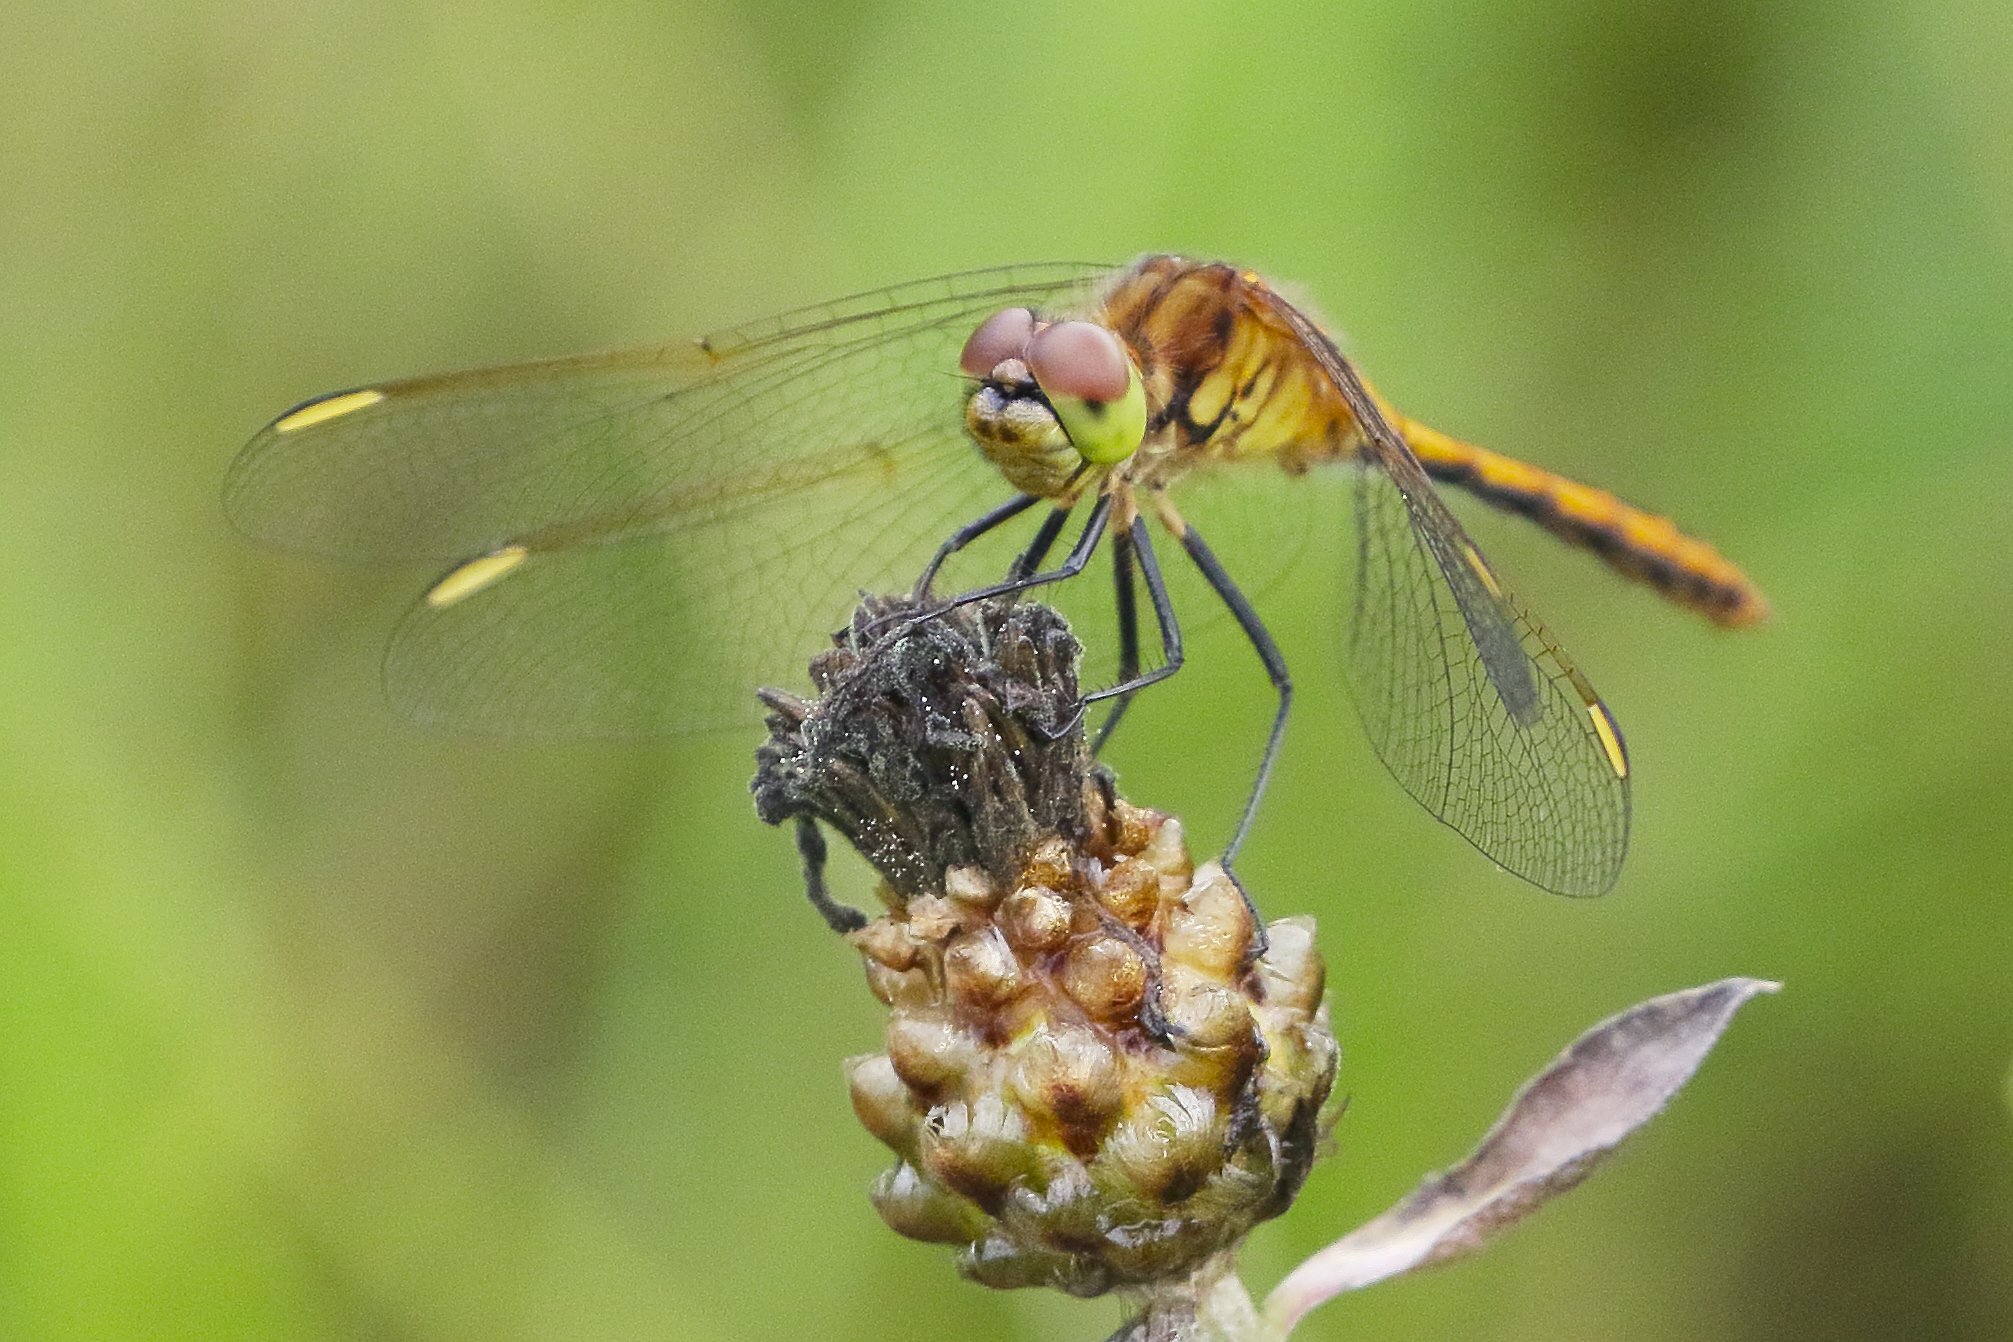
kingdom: Animalia
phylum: Arthropoda
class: Insecta
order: Odonata
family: Libellulidae
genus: Sympetrum
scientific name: Sympetrum costiferum
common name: Saffron-winged meadowhawk
